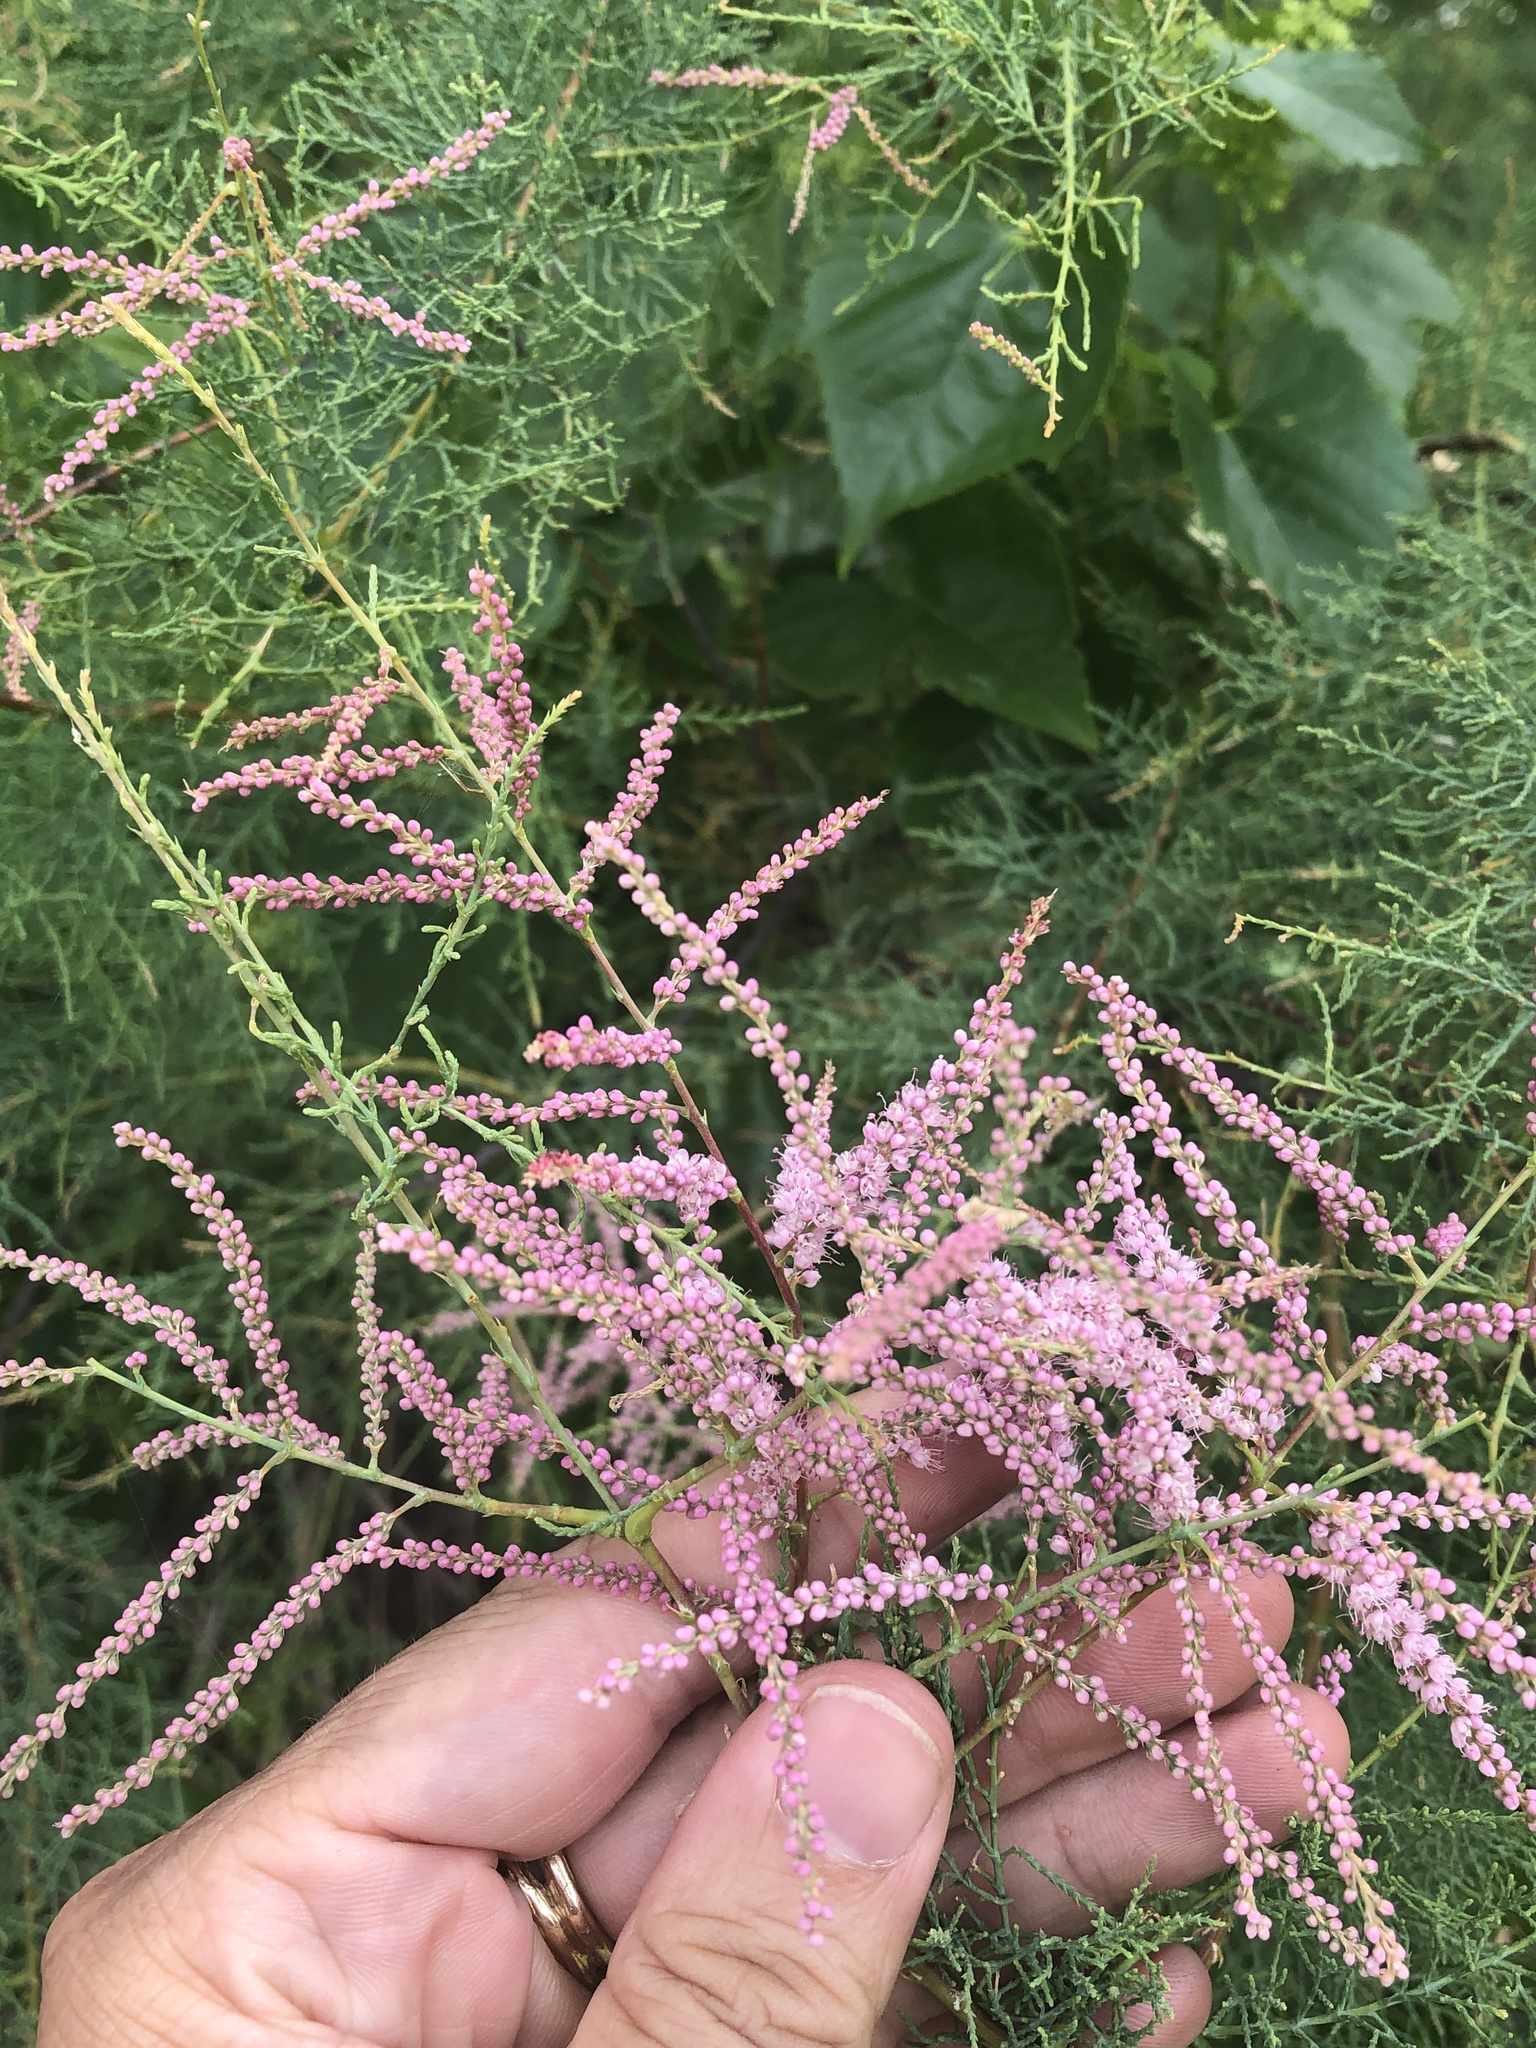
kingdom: Plantae
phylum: Tracheophyta
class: Magnoliopsida
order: Caryophyllales
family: Tamaricaceae
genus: Tamarix
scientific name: Tamarix
